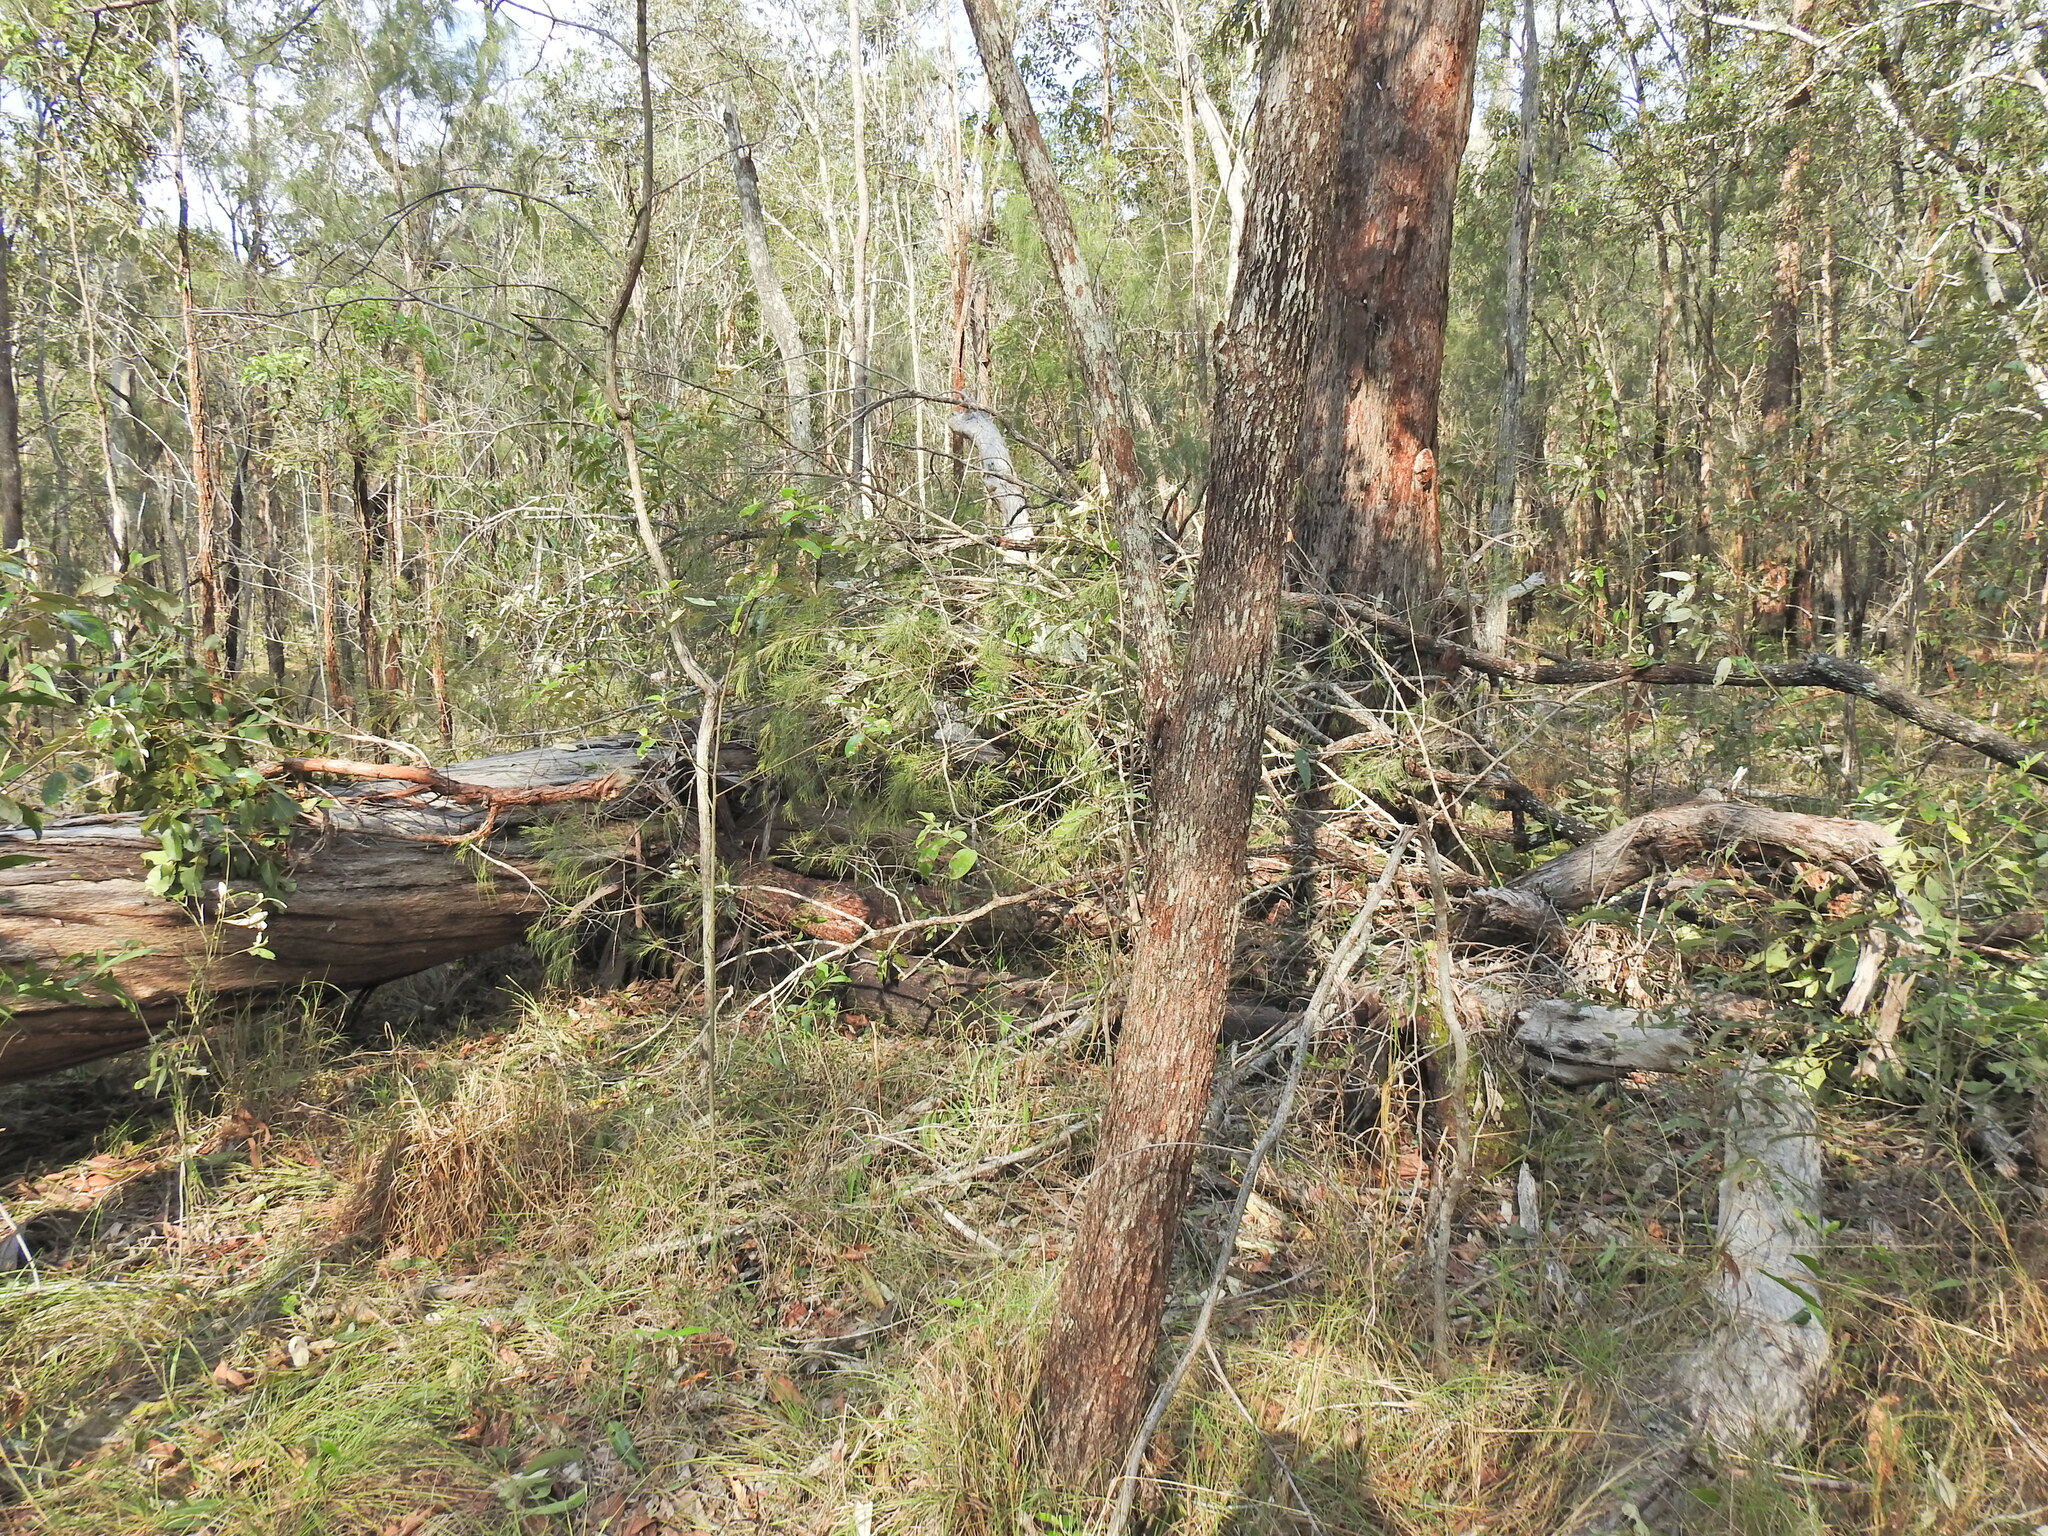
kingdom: Plantae
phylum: Tracheophyta
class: Magnoliopsida
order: Fagales
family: Casuarinaceae
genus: Allocasuarina
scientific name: Allocasuarina torulosa
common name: Forest-oak
